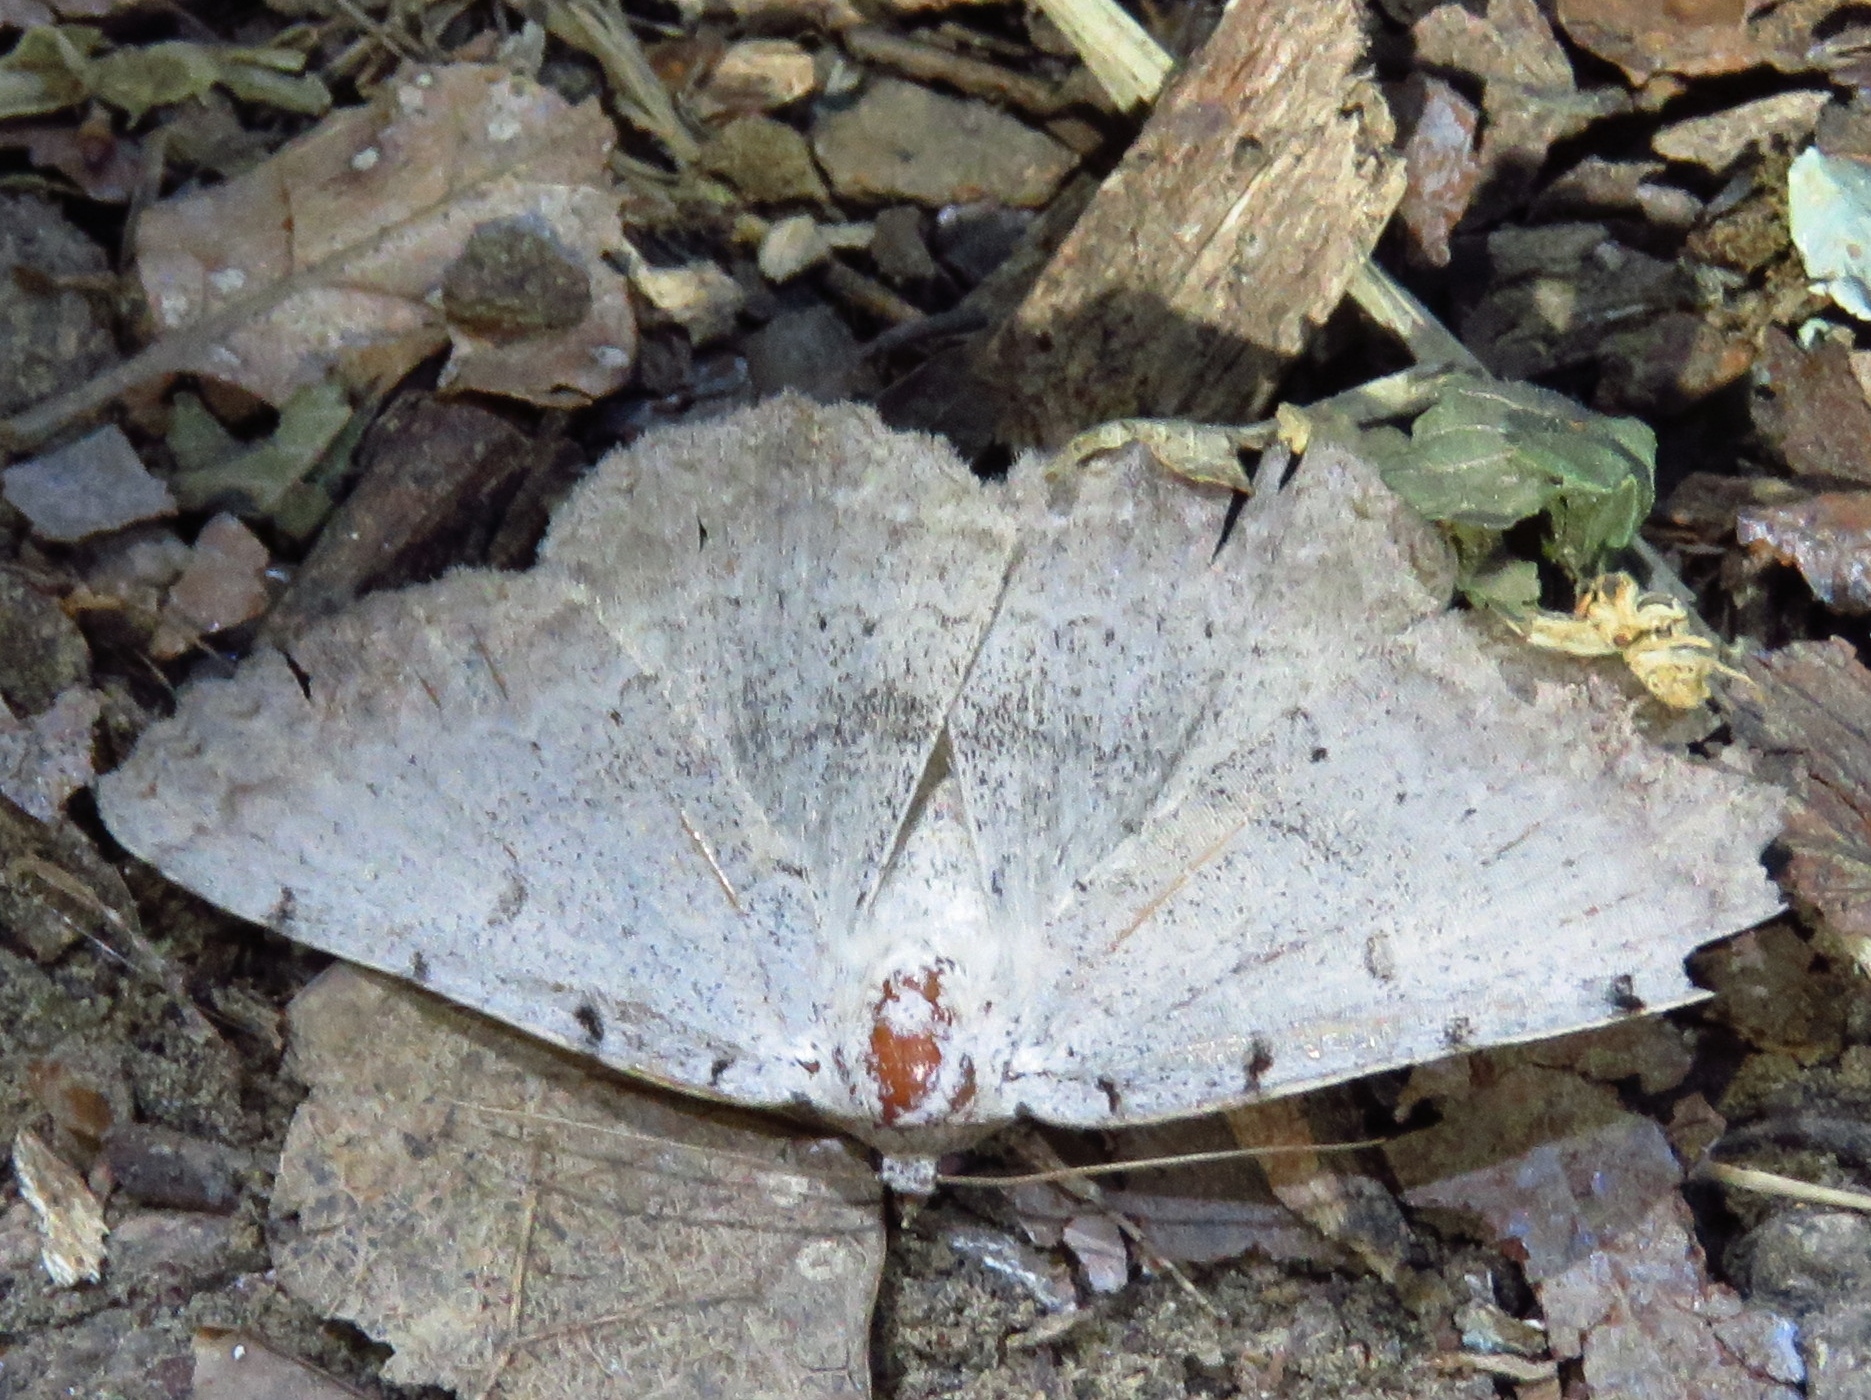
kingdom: Animalia
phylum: Arthropoda
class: Insecta
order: Lepidoptera
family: Erebidae
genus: Spiloloma
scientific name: Spiloloma lunilinea
